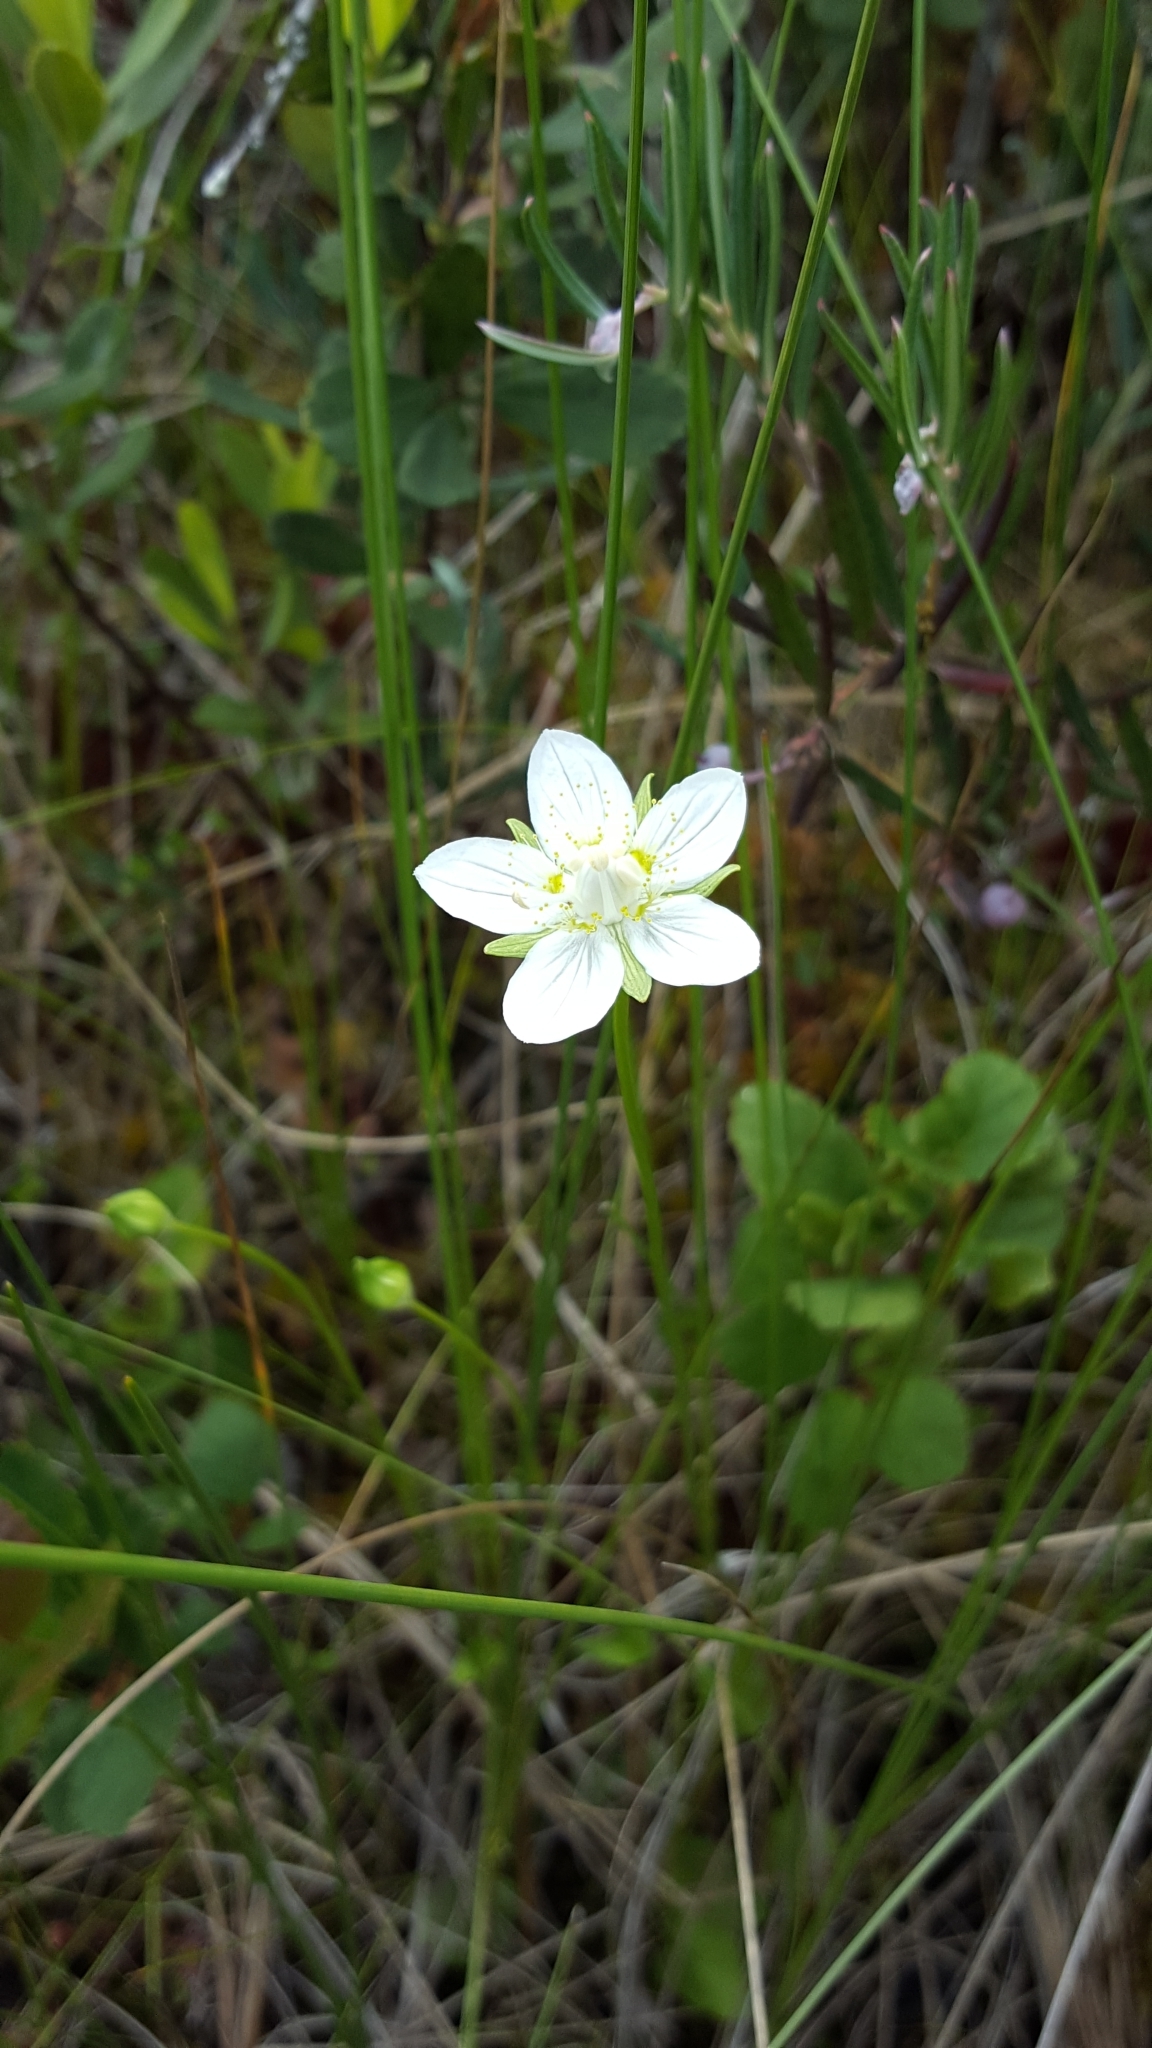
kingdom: Plantae
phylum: Tracheophyta
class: Magnoliopsida
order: Celastrales
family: Parnassiaceae
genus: Parnassia
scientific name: Parnassia palustris
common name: Grass-of-parnassus
